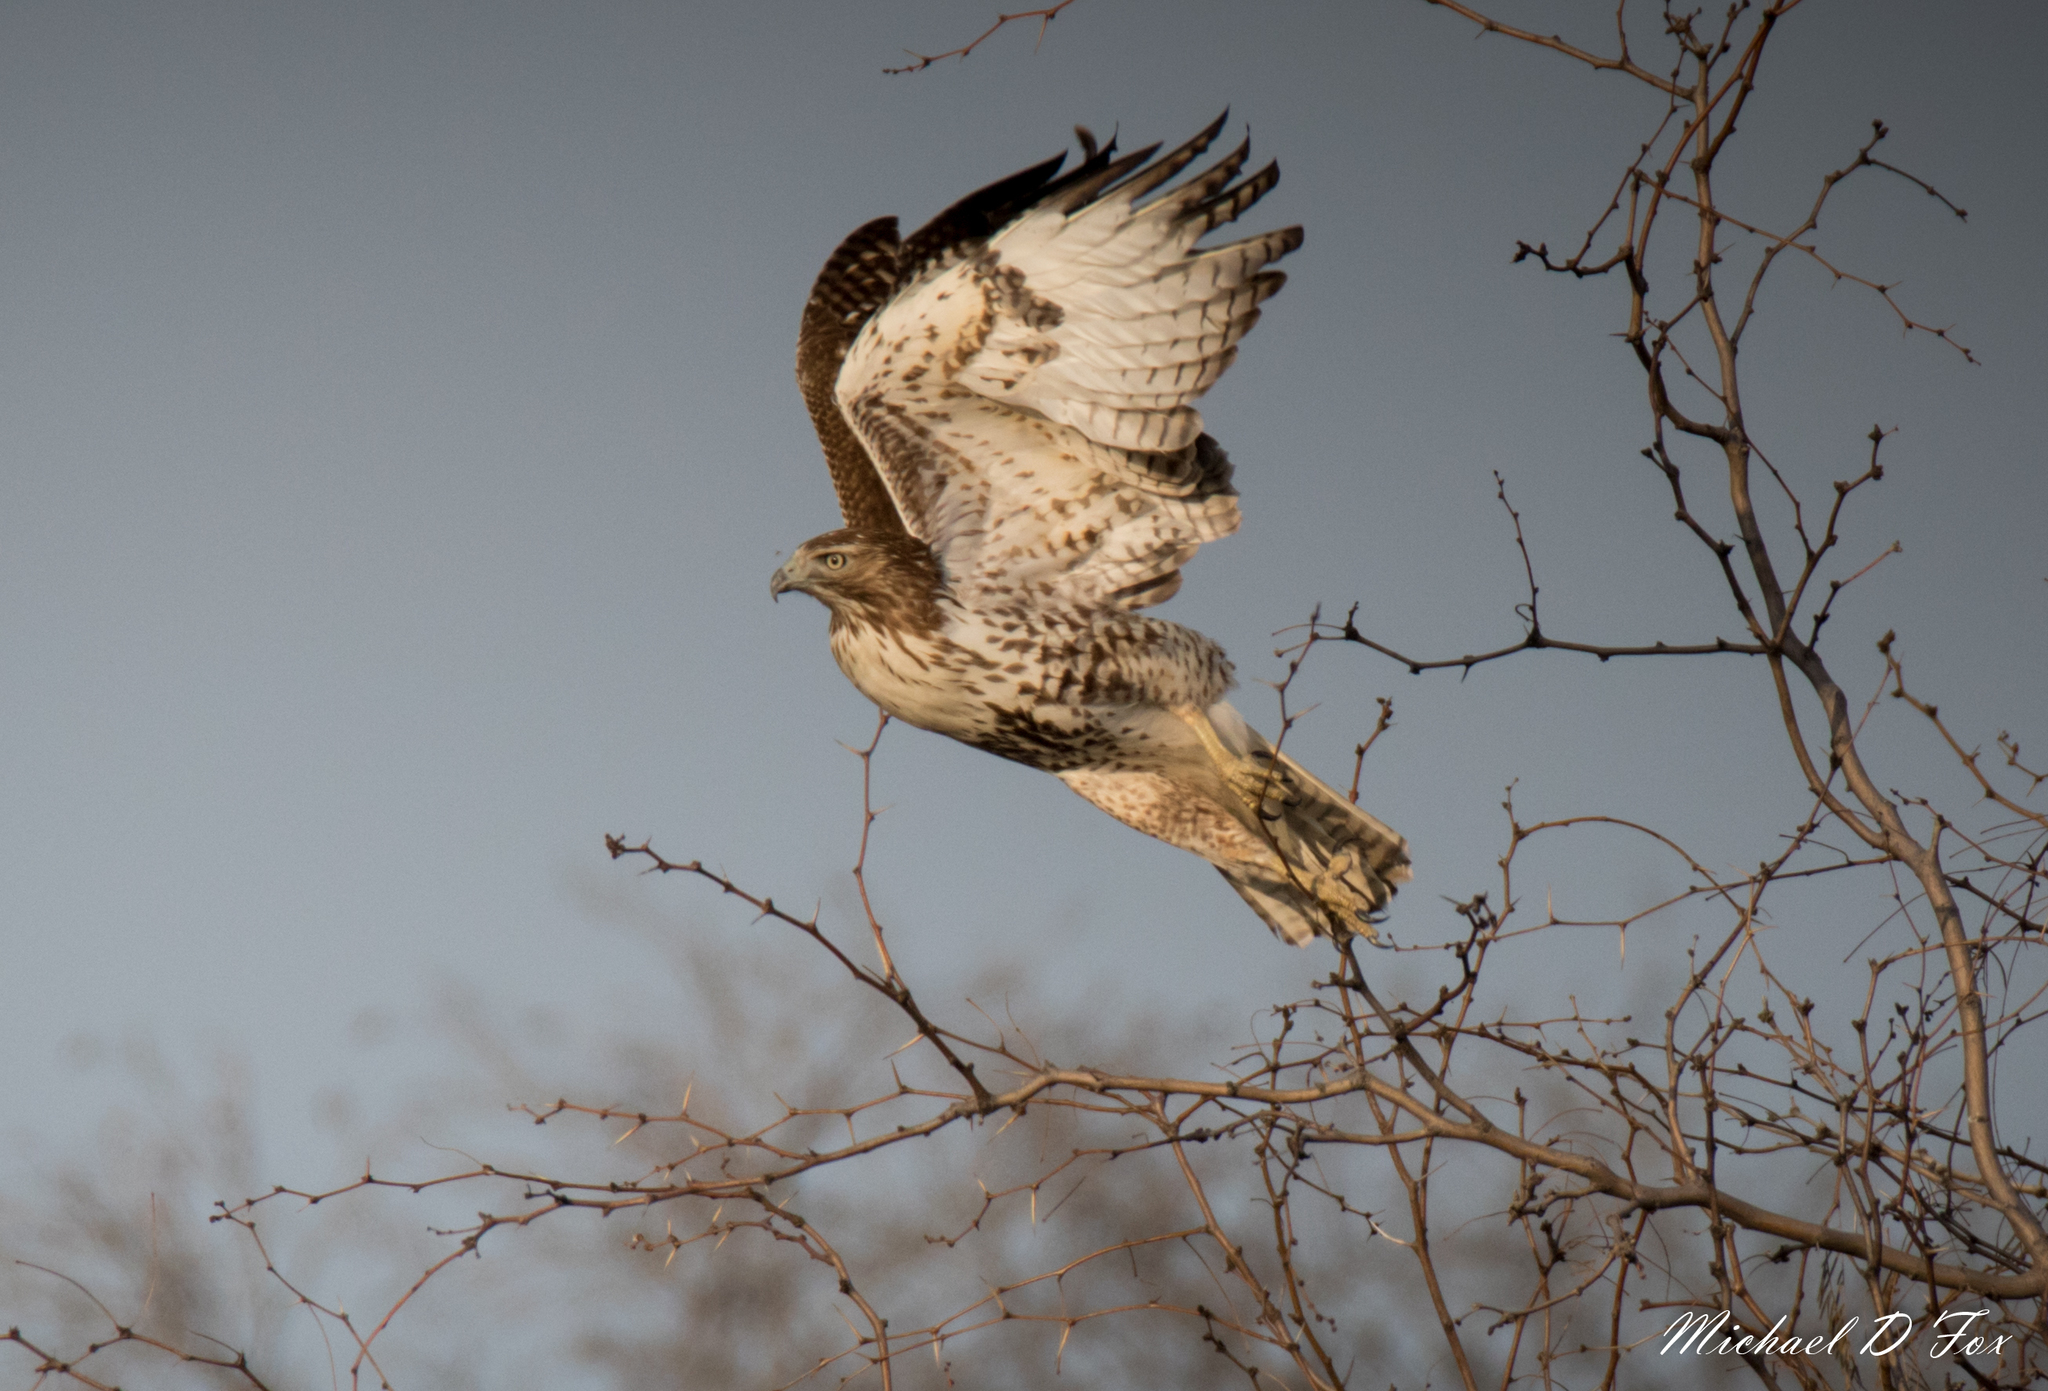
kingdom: Animalia
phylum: Chordata
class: Aves
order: Accipitriformes
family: Accipitridae
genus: Buteo
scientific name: Buteo jamaicensis
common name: Red-tailed hawk
